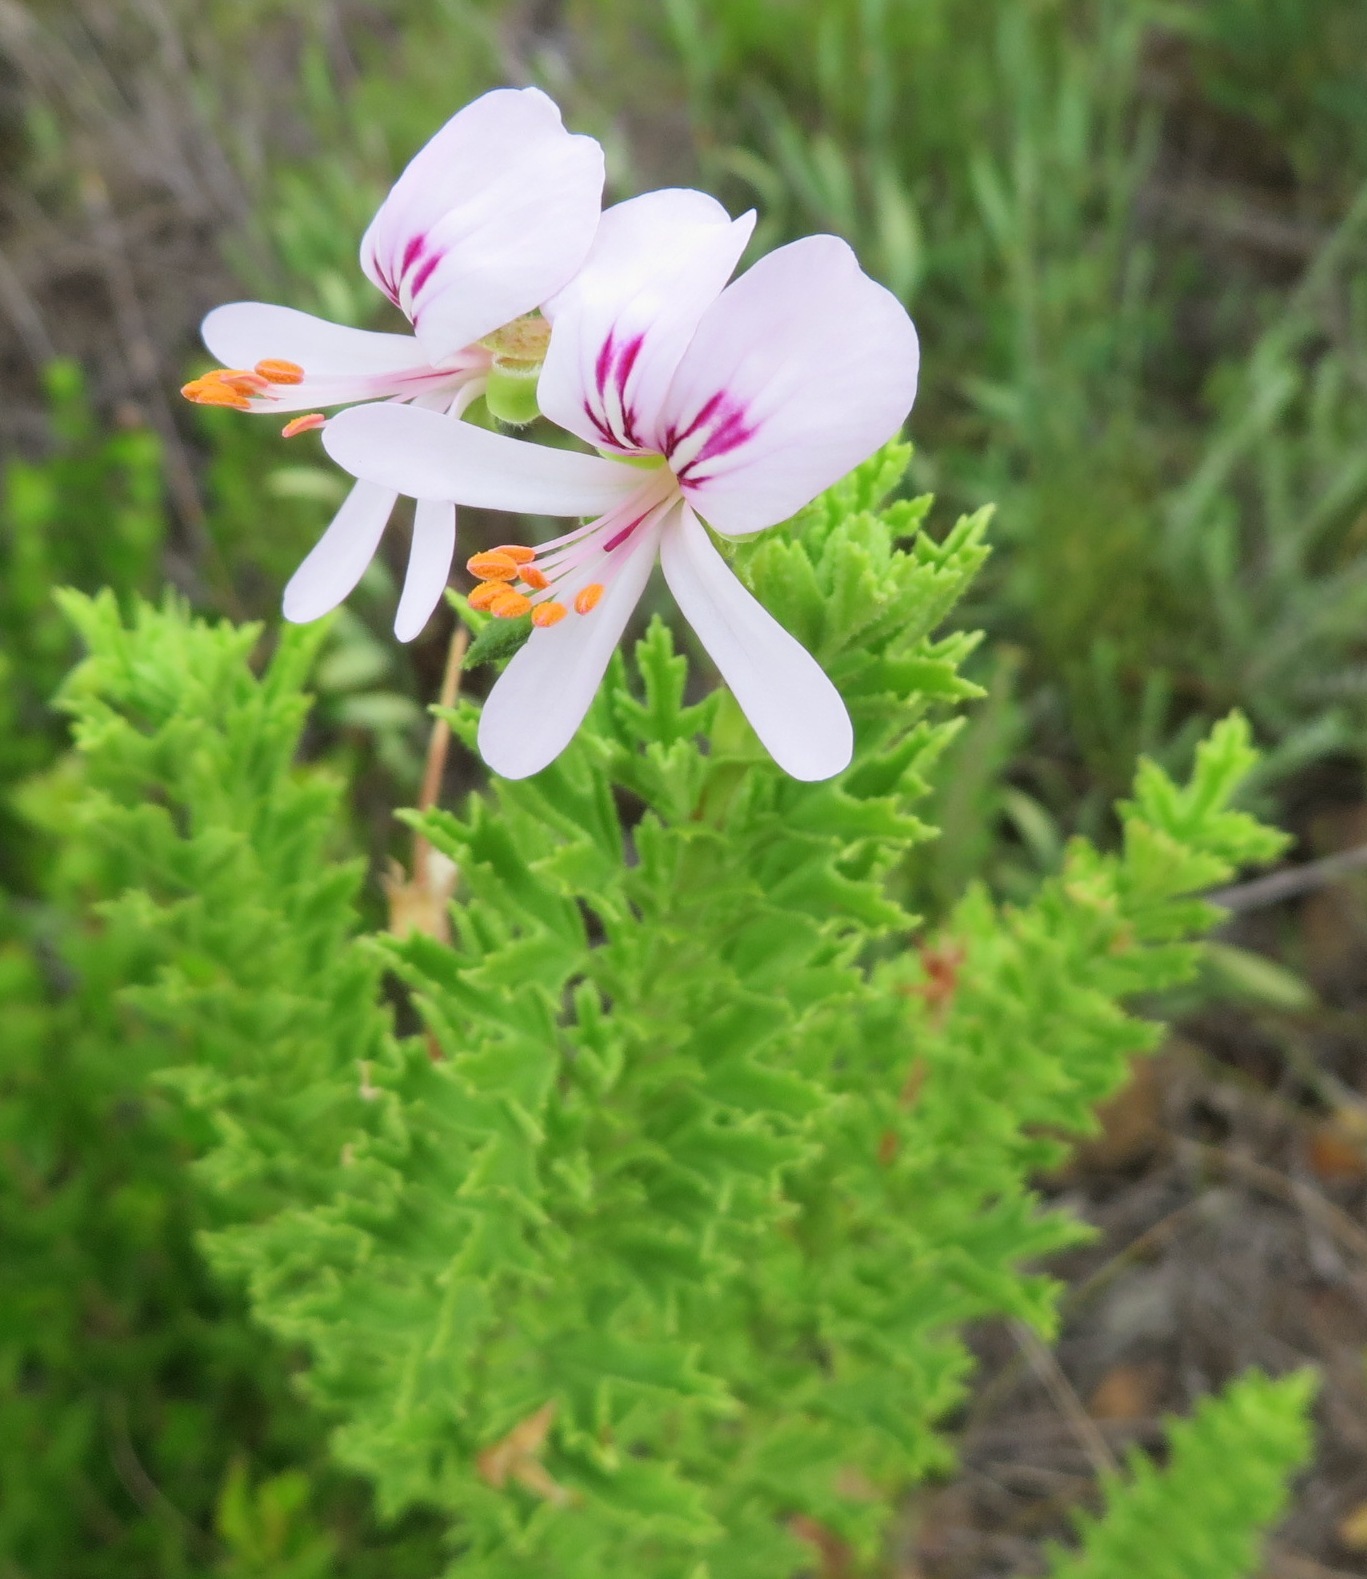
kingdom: Plantae
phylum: Tracheophyta
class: Magnoliopsida
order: Geraniales
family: Geraniaceae
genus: Pelargonium
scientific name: Pelargonium hermaniifolium
